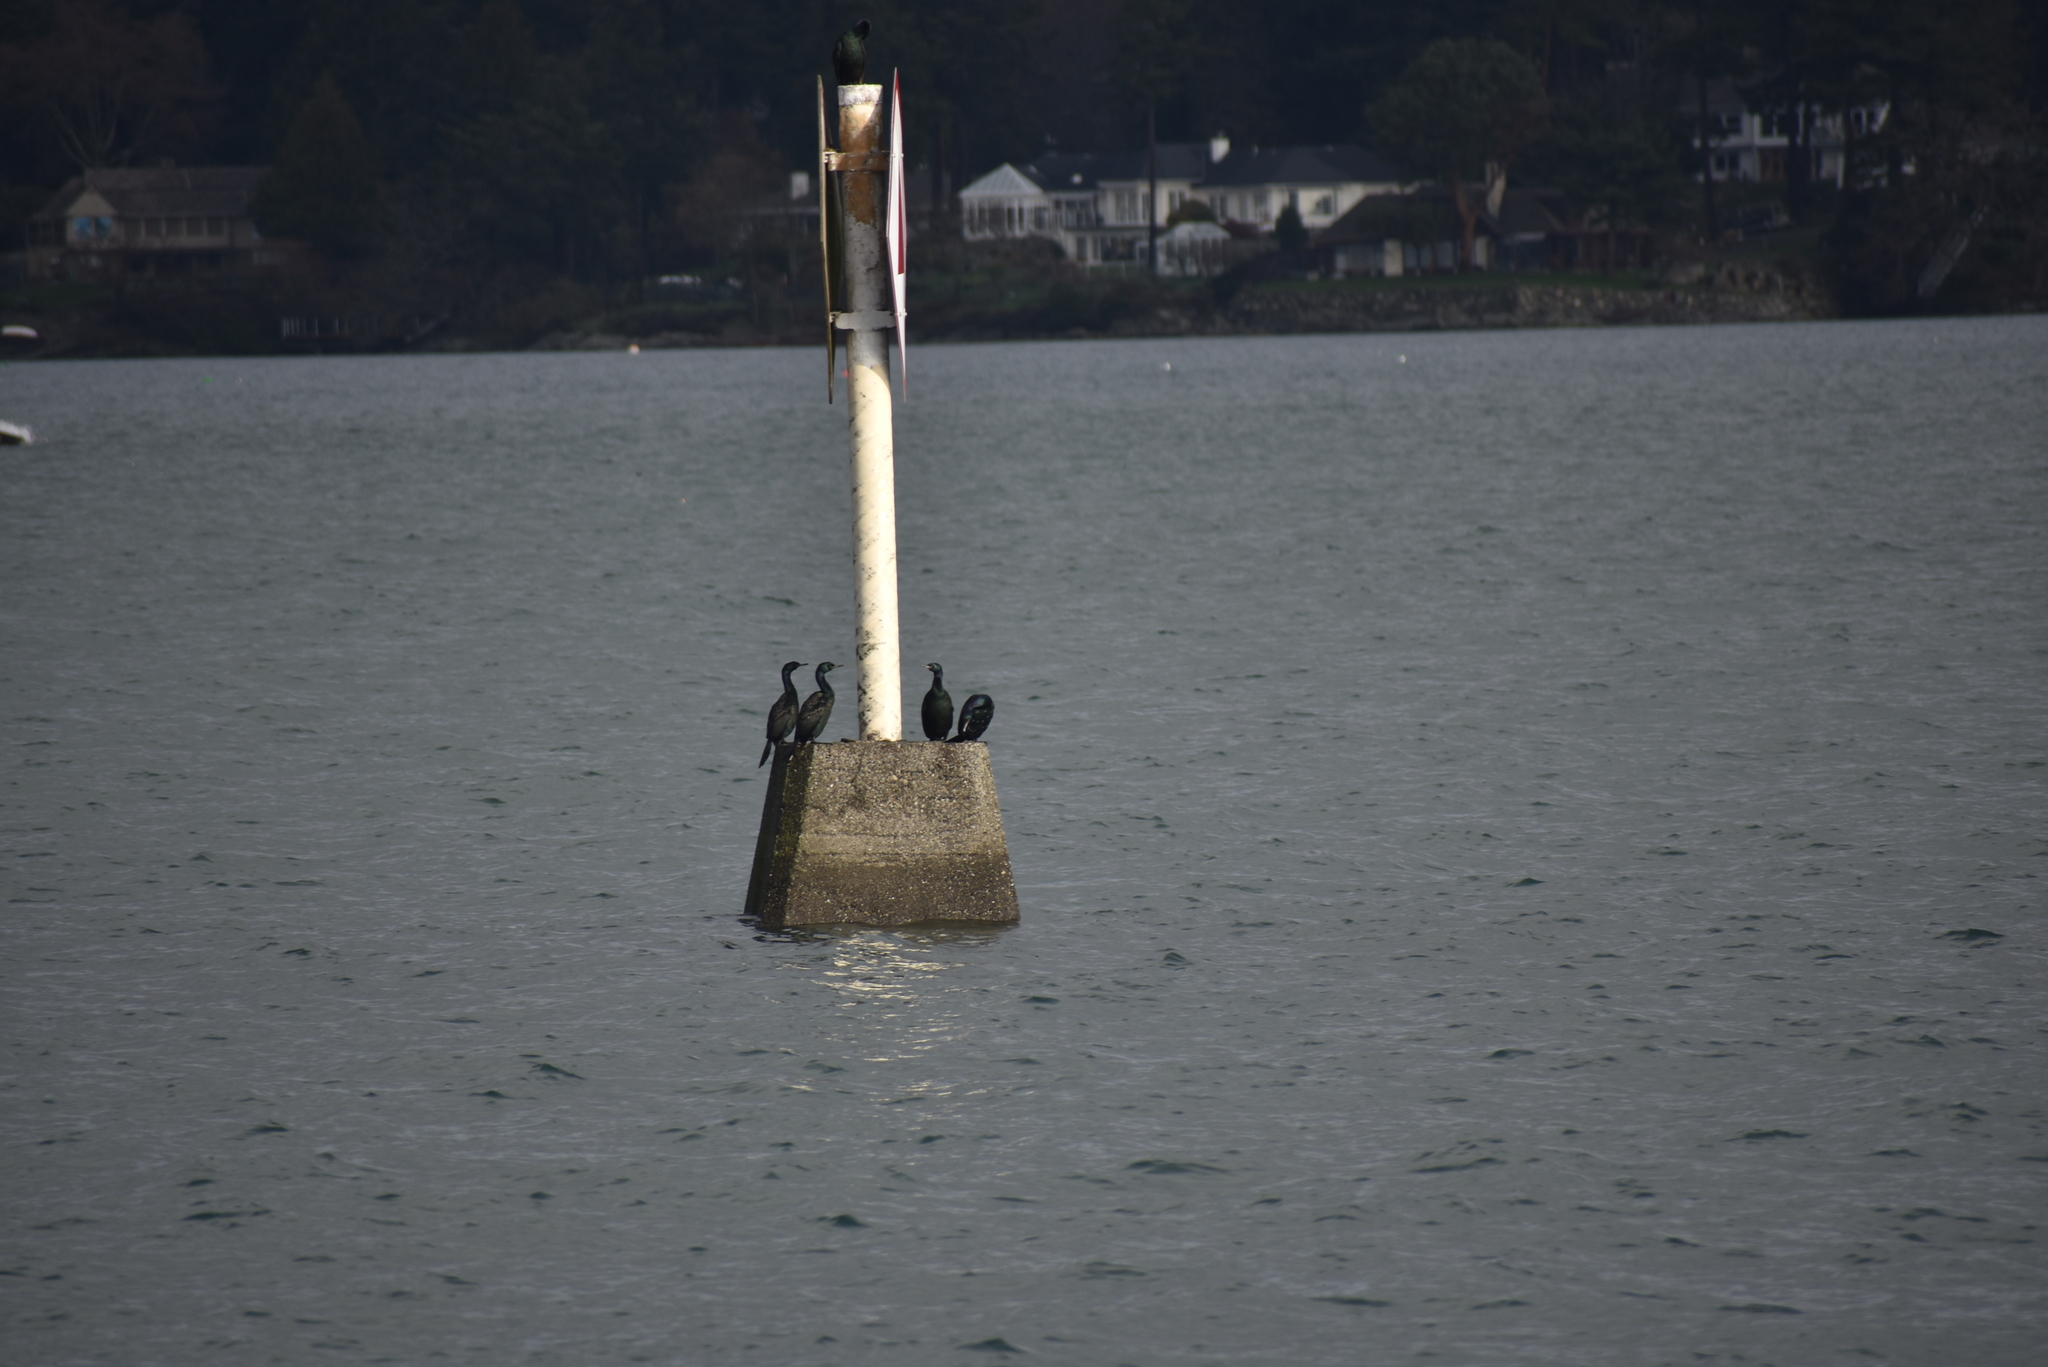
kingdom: Animalia
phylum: Chordata
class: Aves
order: Suliformes
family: Phalacrocoracidae
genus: Phalacrocorax
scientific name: Phalacrocorax pelagicus
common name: Pelagic cormorant
